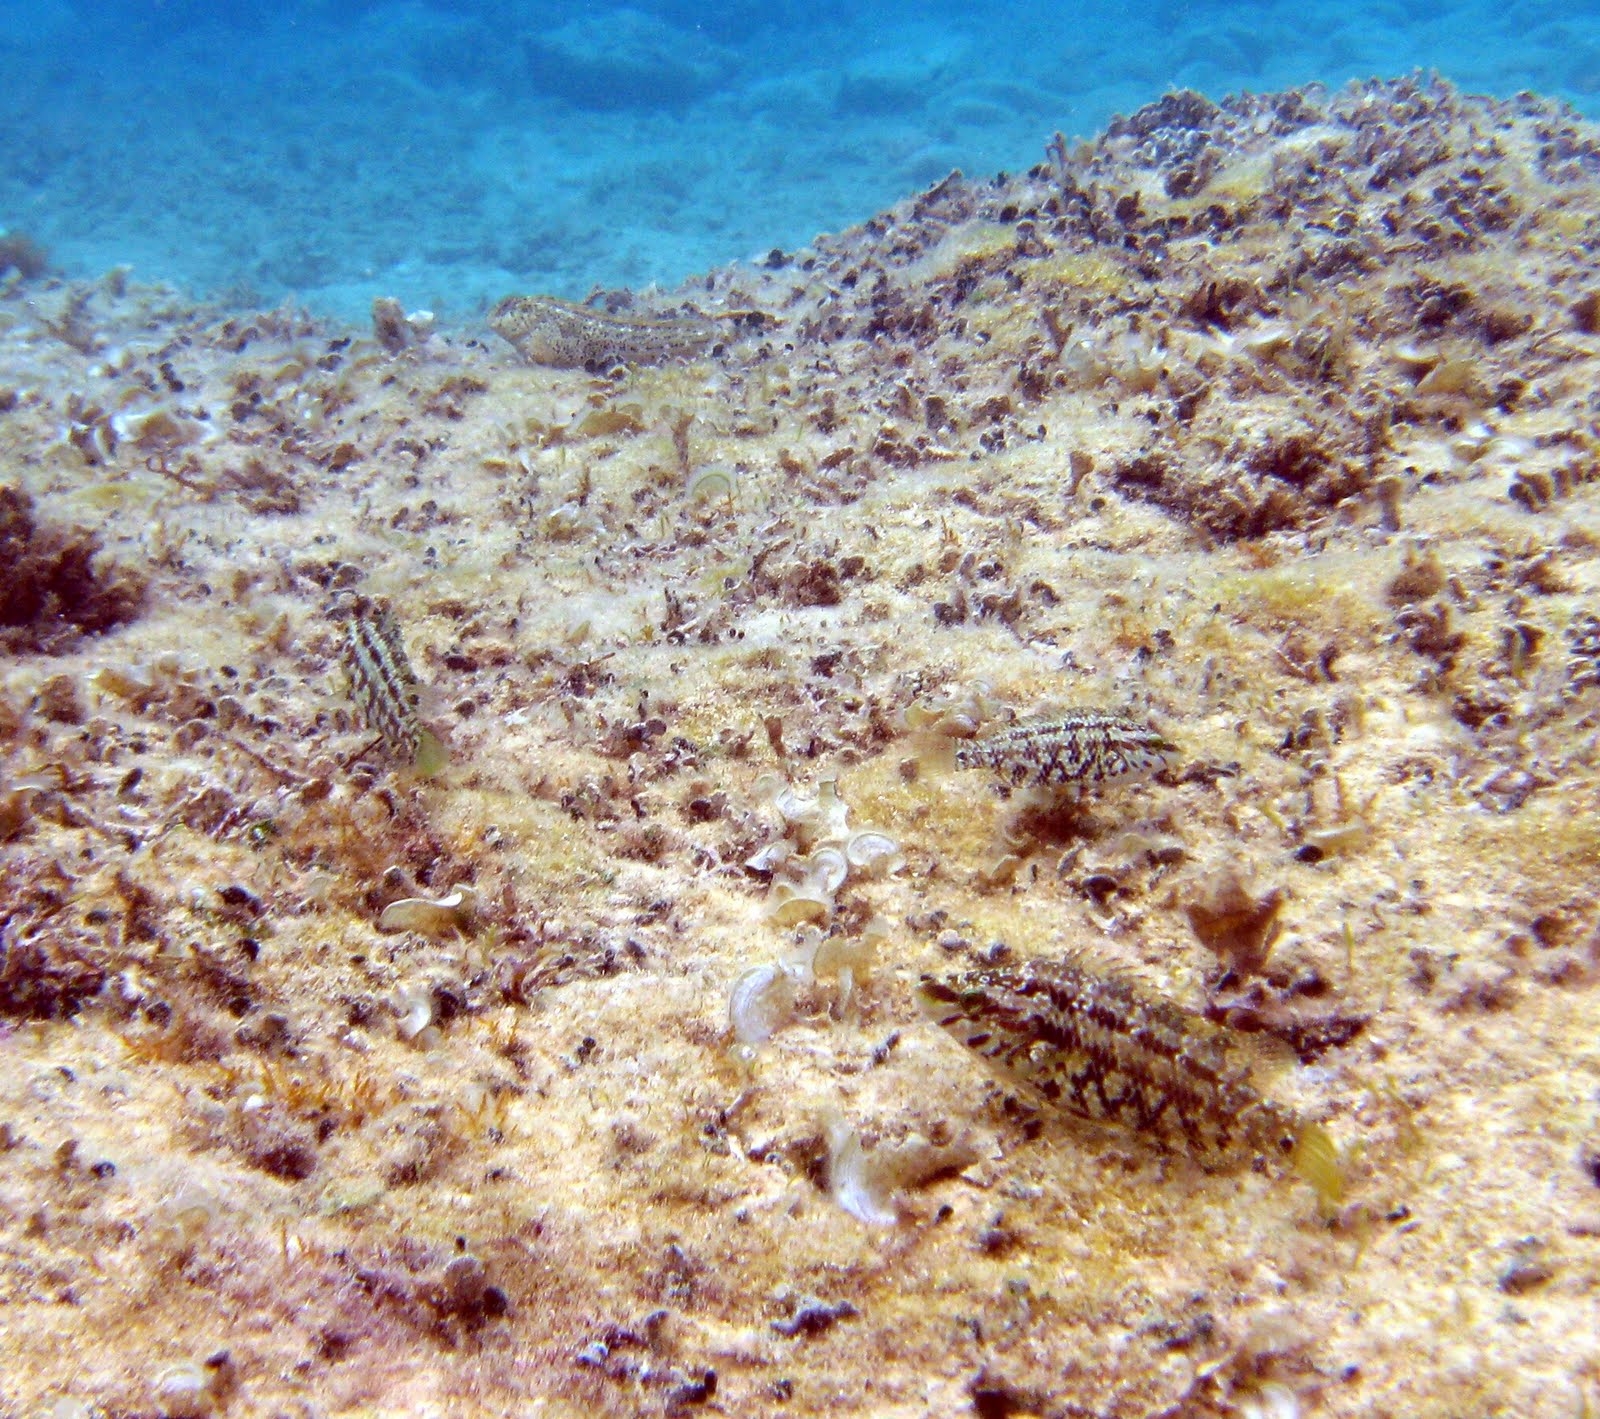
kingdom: Animalia
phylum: Chordata
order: Perciformes
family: Labridae
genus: Symphodus
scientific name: Symphodus roissali
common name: Five-spotted wrasse
